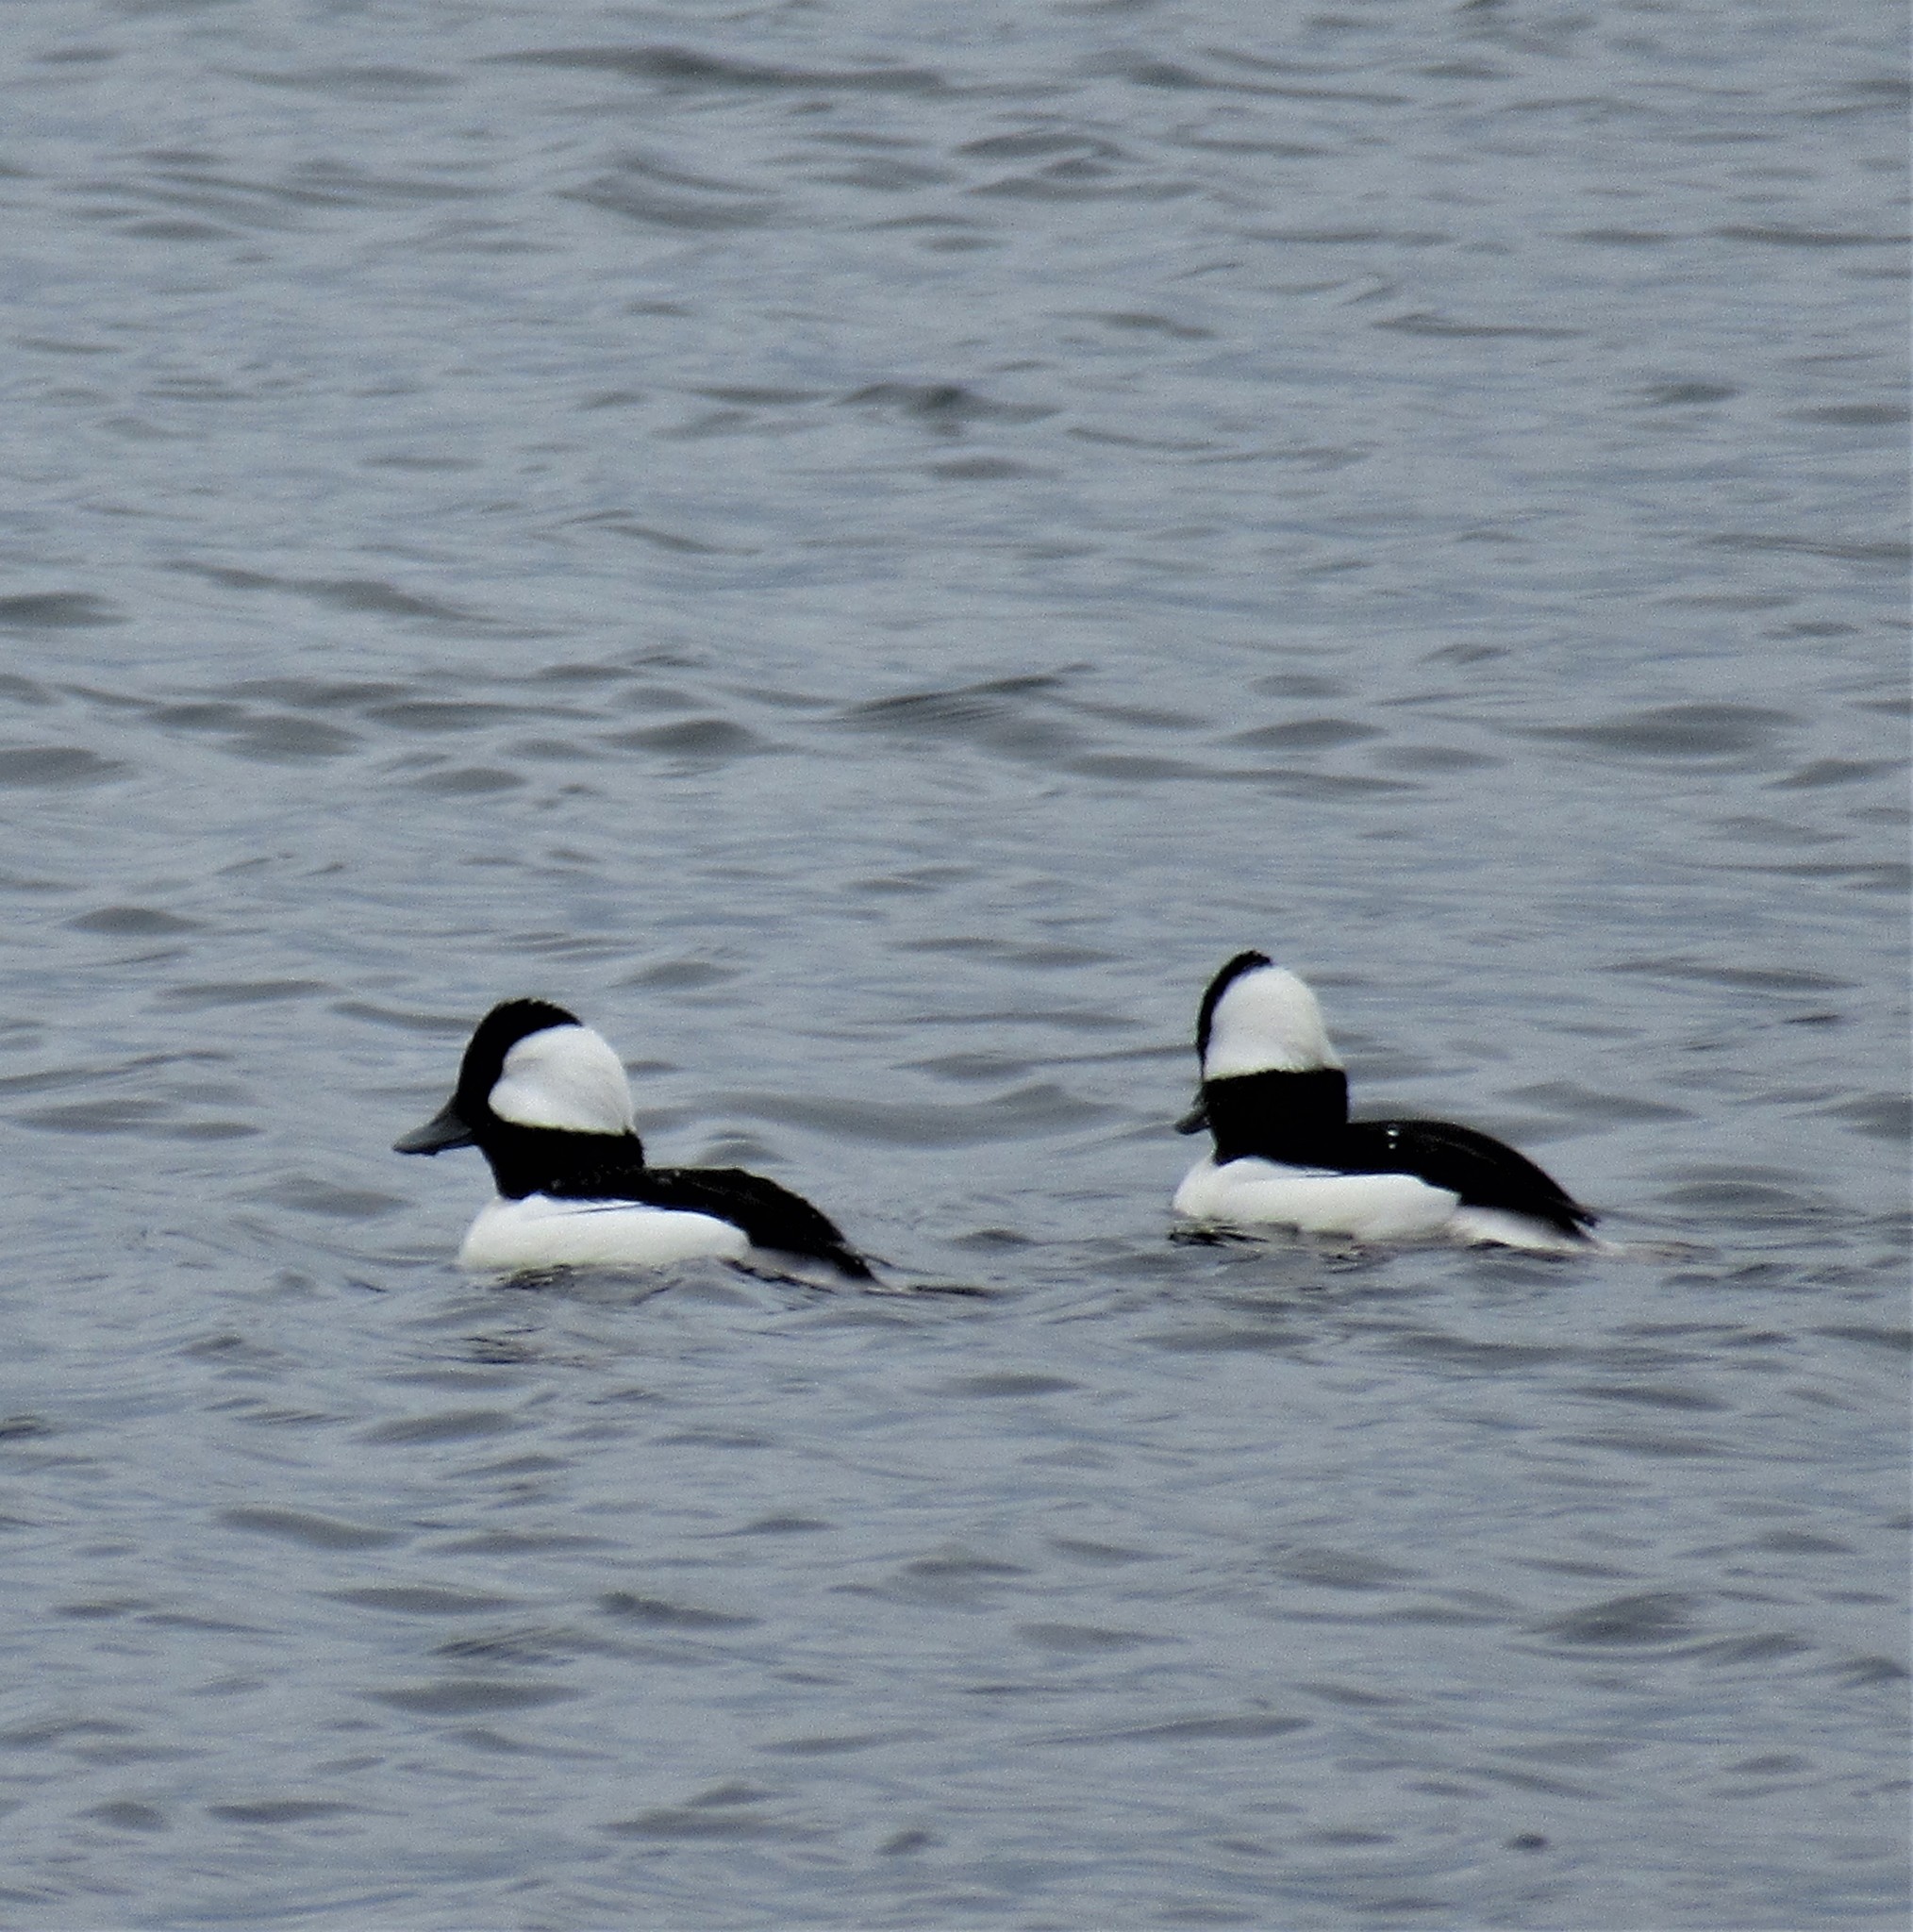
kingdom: Animalia
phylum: Chordata
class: Aves
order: Anseriformes
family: Anatidae
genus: Bucephala
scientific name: Bucephala albeola
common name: Bufflehead
